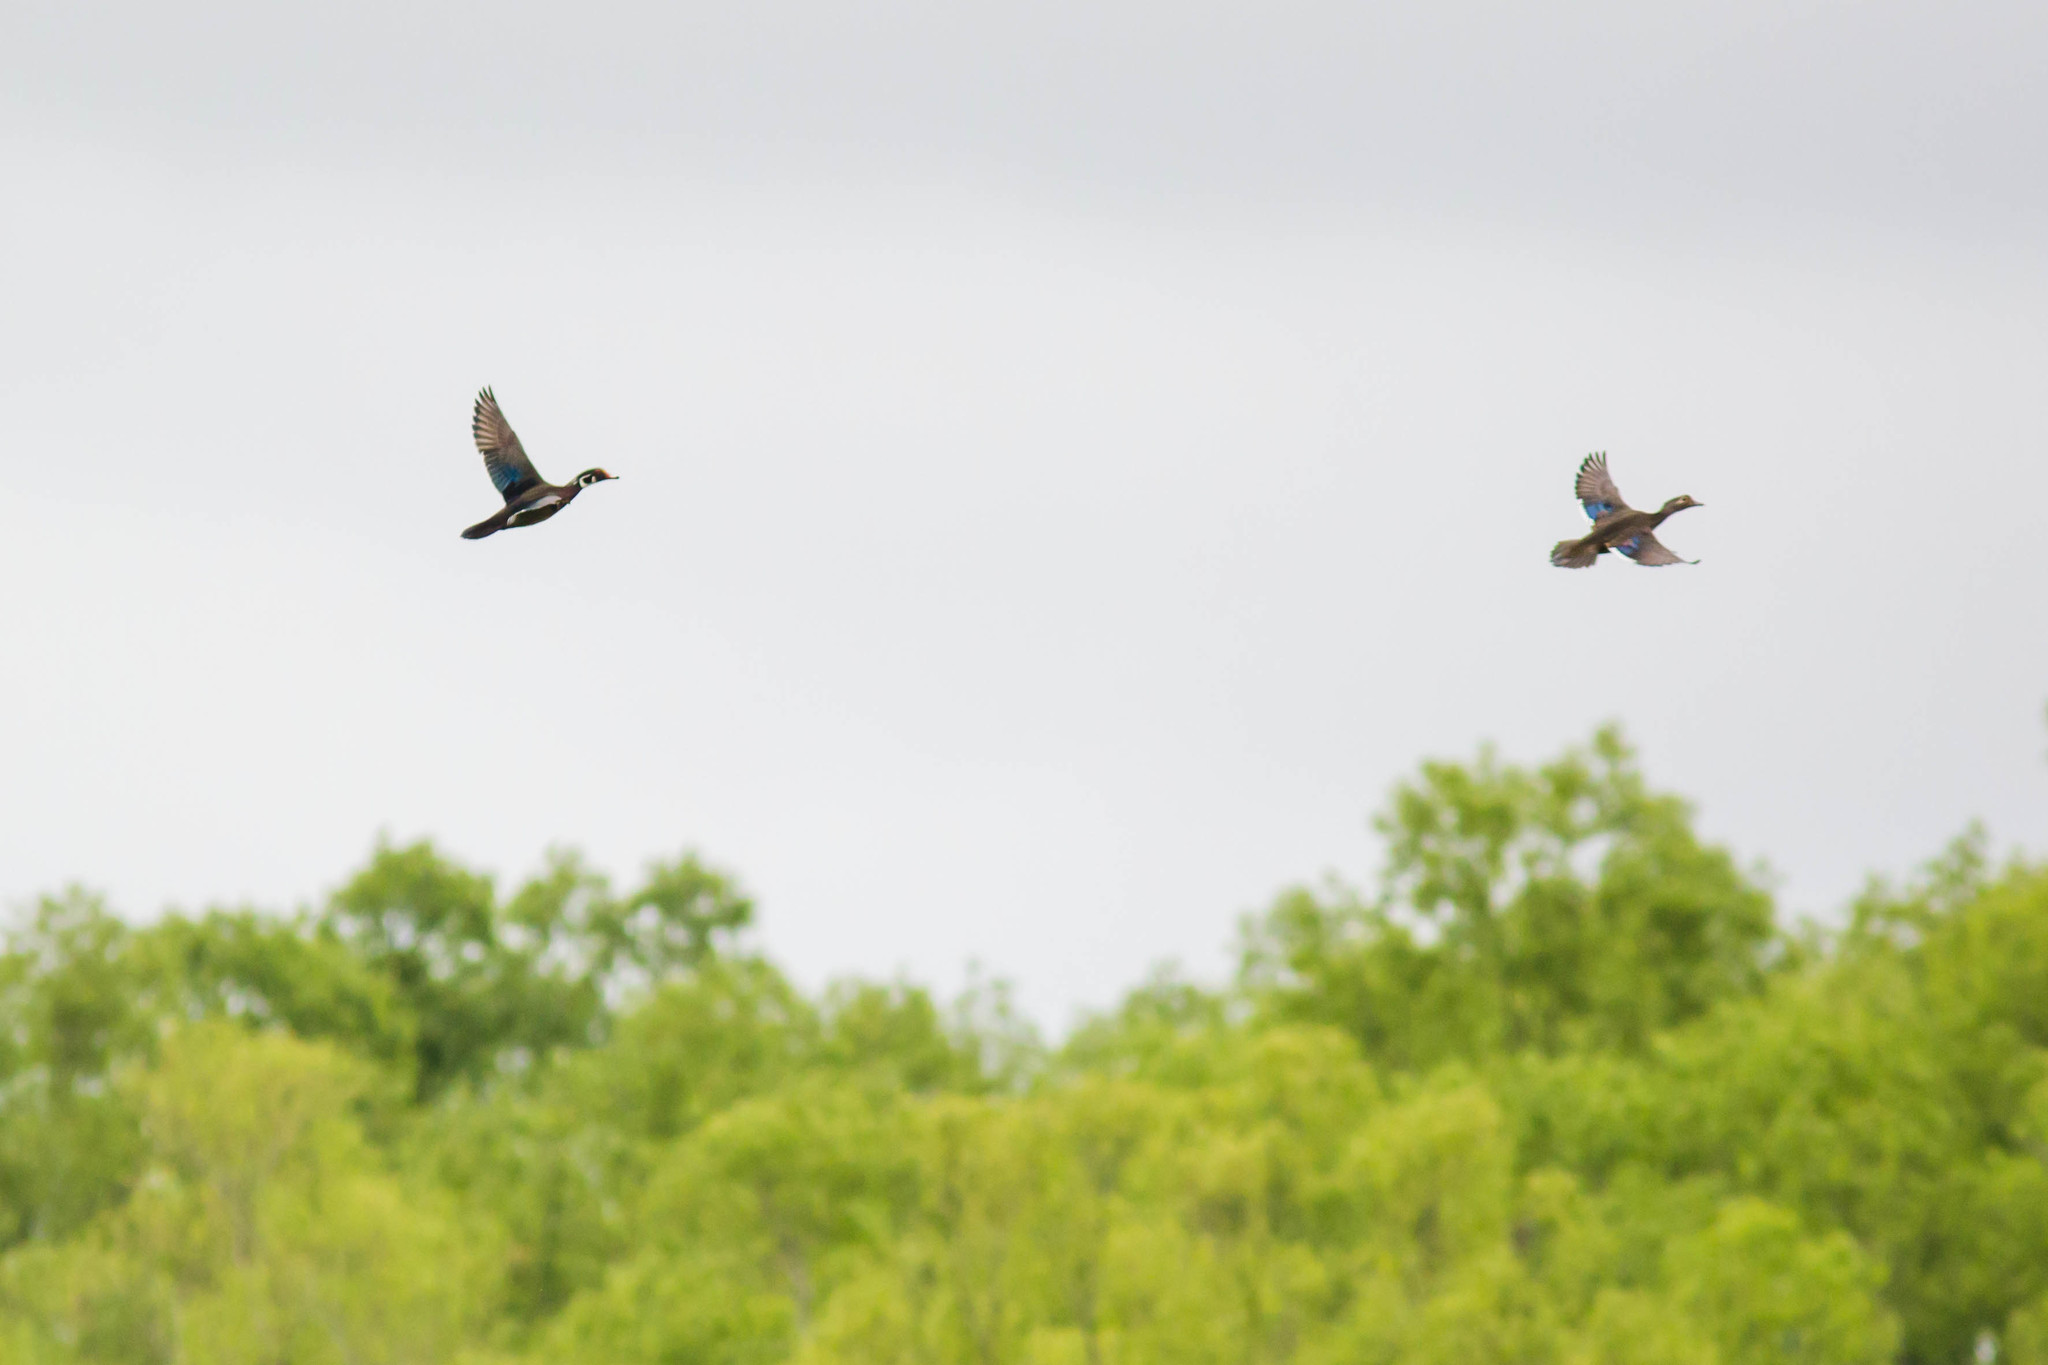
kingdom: Animalia
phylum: Chordata
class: Aves
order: Anseriformes
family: Anatidae
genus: Aix
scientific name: Aix sponsa
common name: Wood duck
